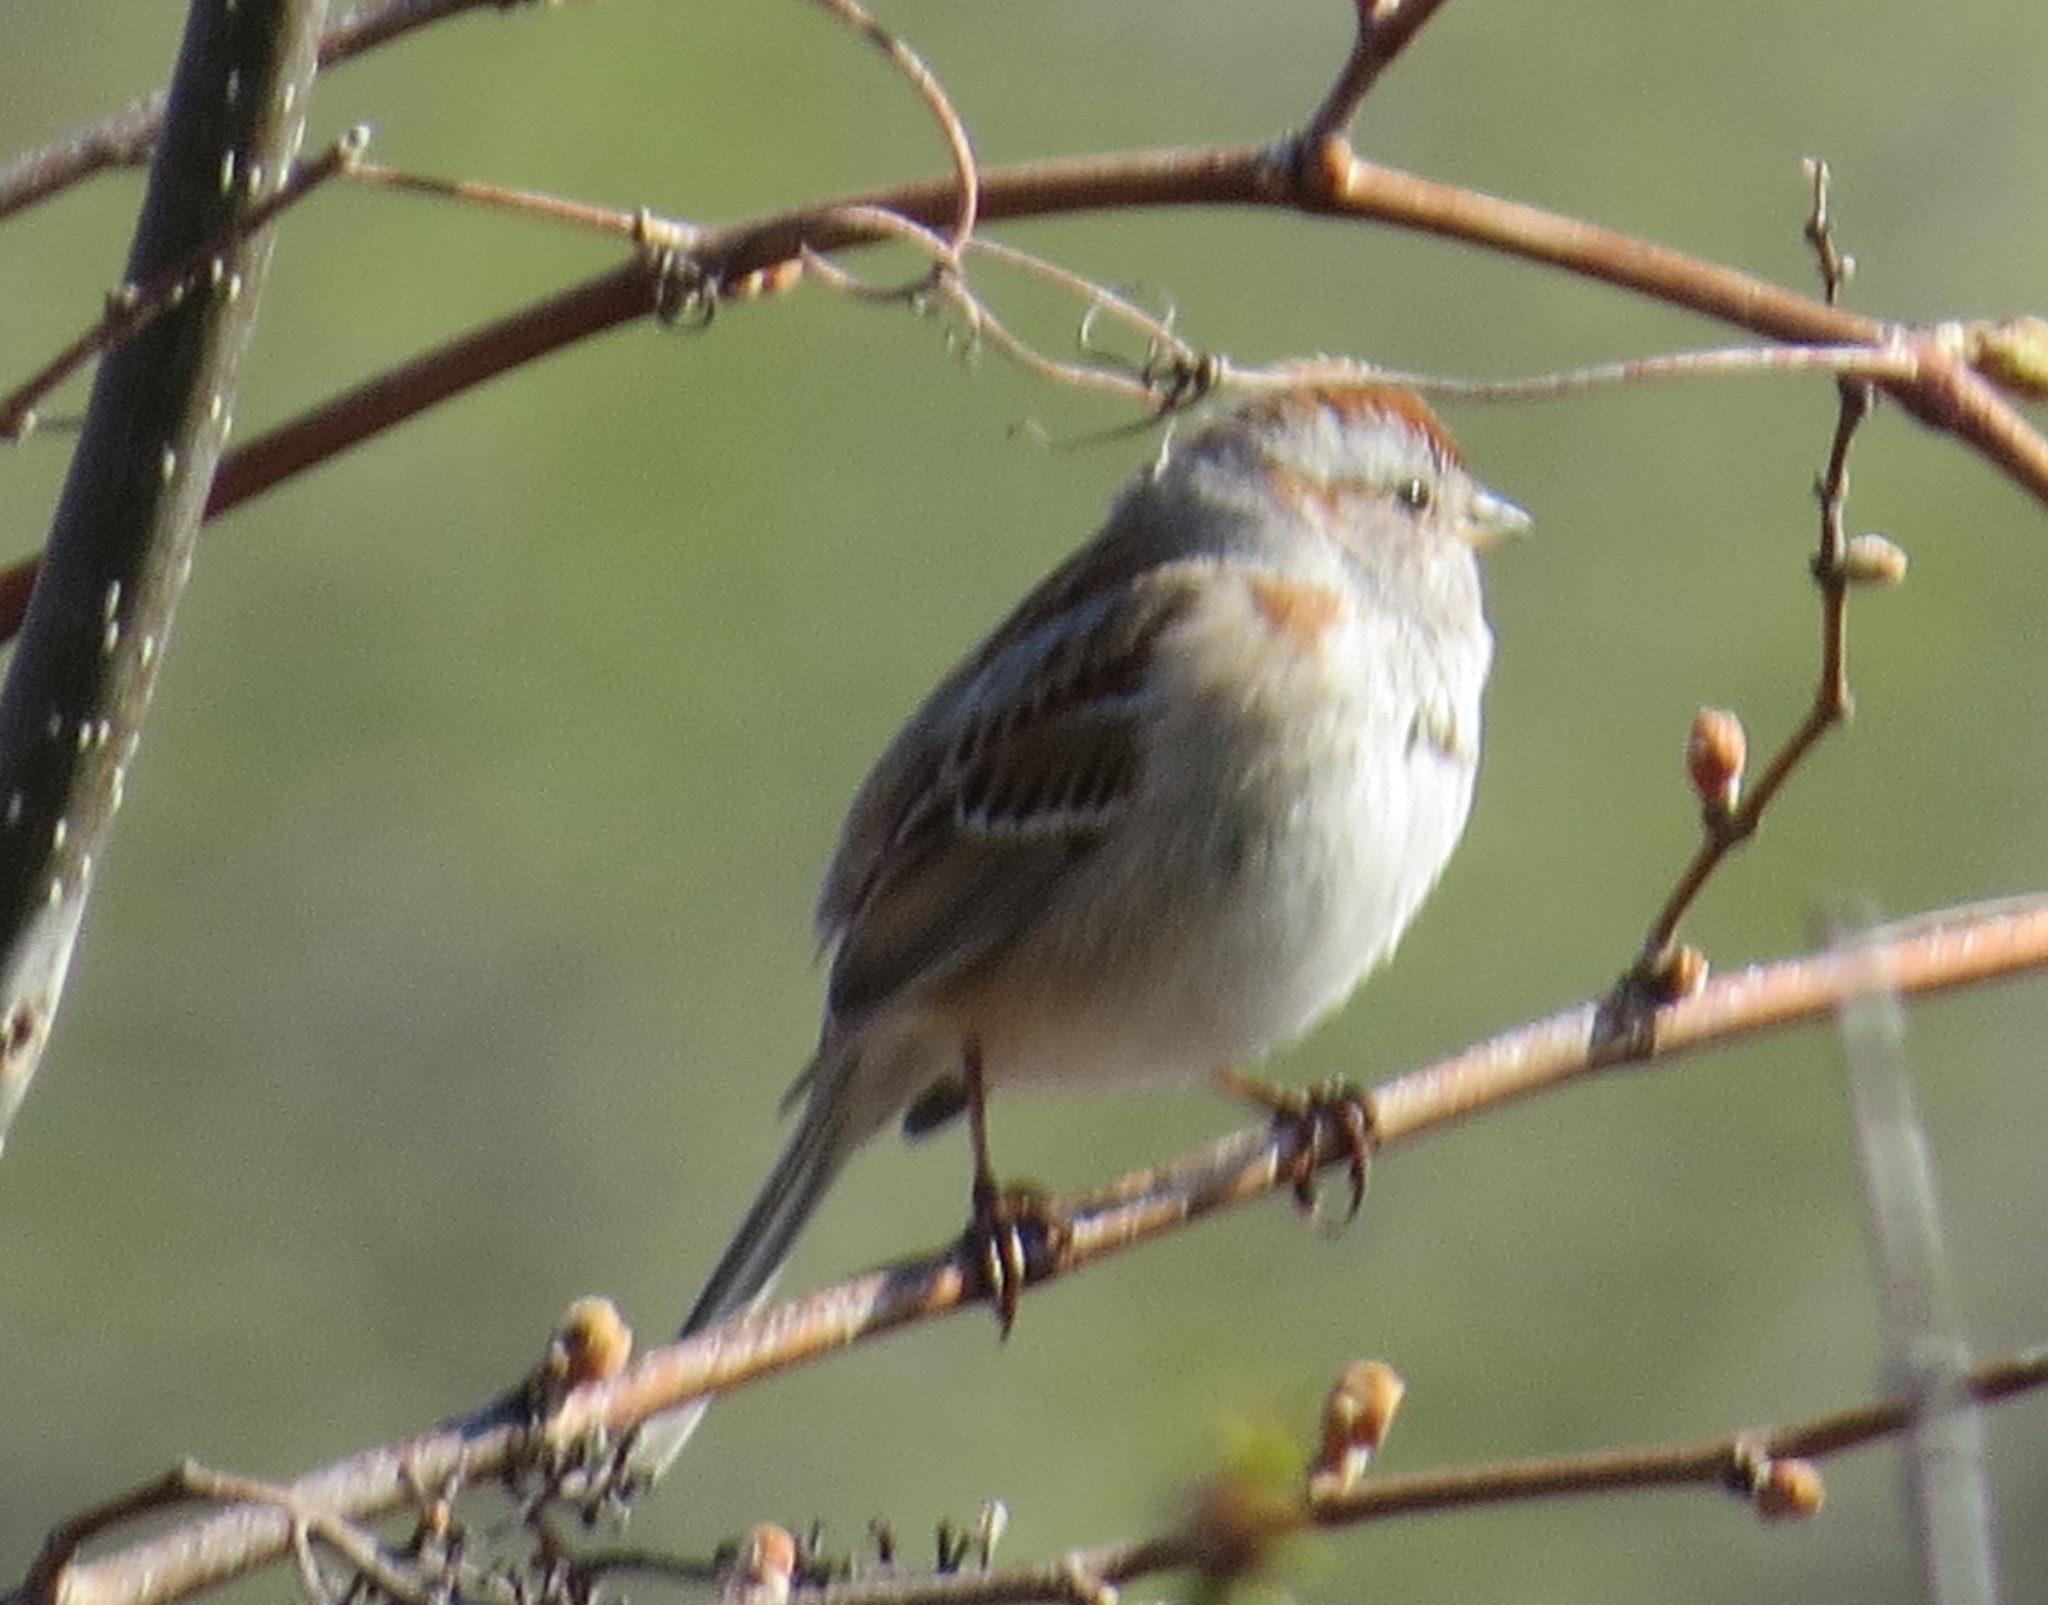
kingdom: Animalia
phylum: Chordata
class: Aves
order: Passeriformes
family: Passerellidae
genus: Spizelloides
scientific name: Spizelloides arborea
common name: American tree sparrow
